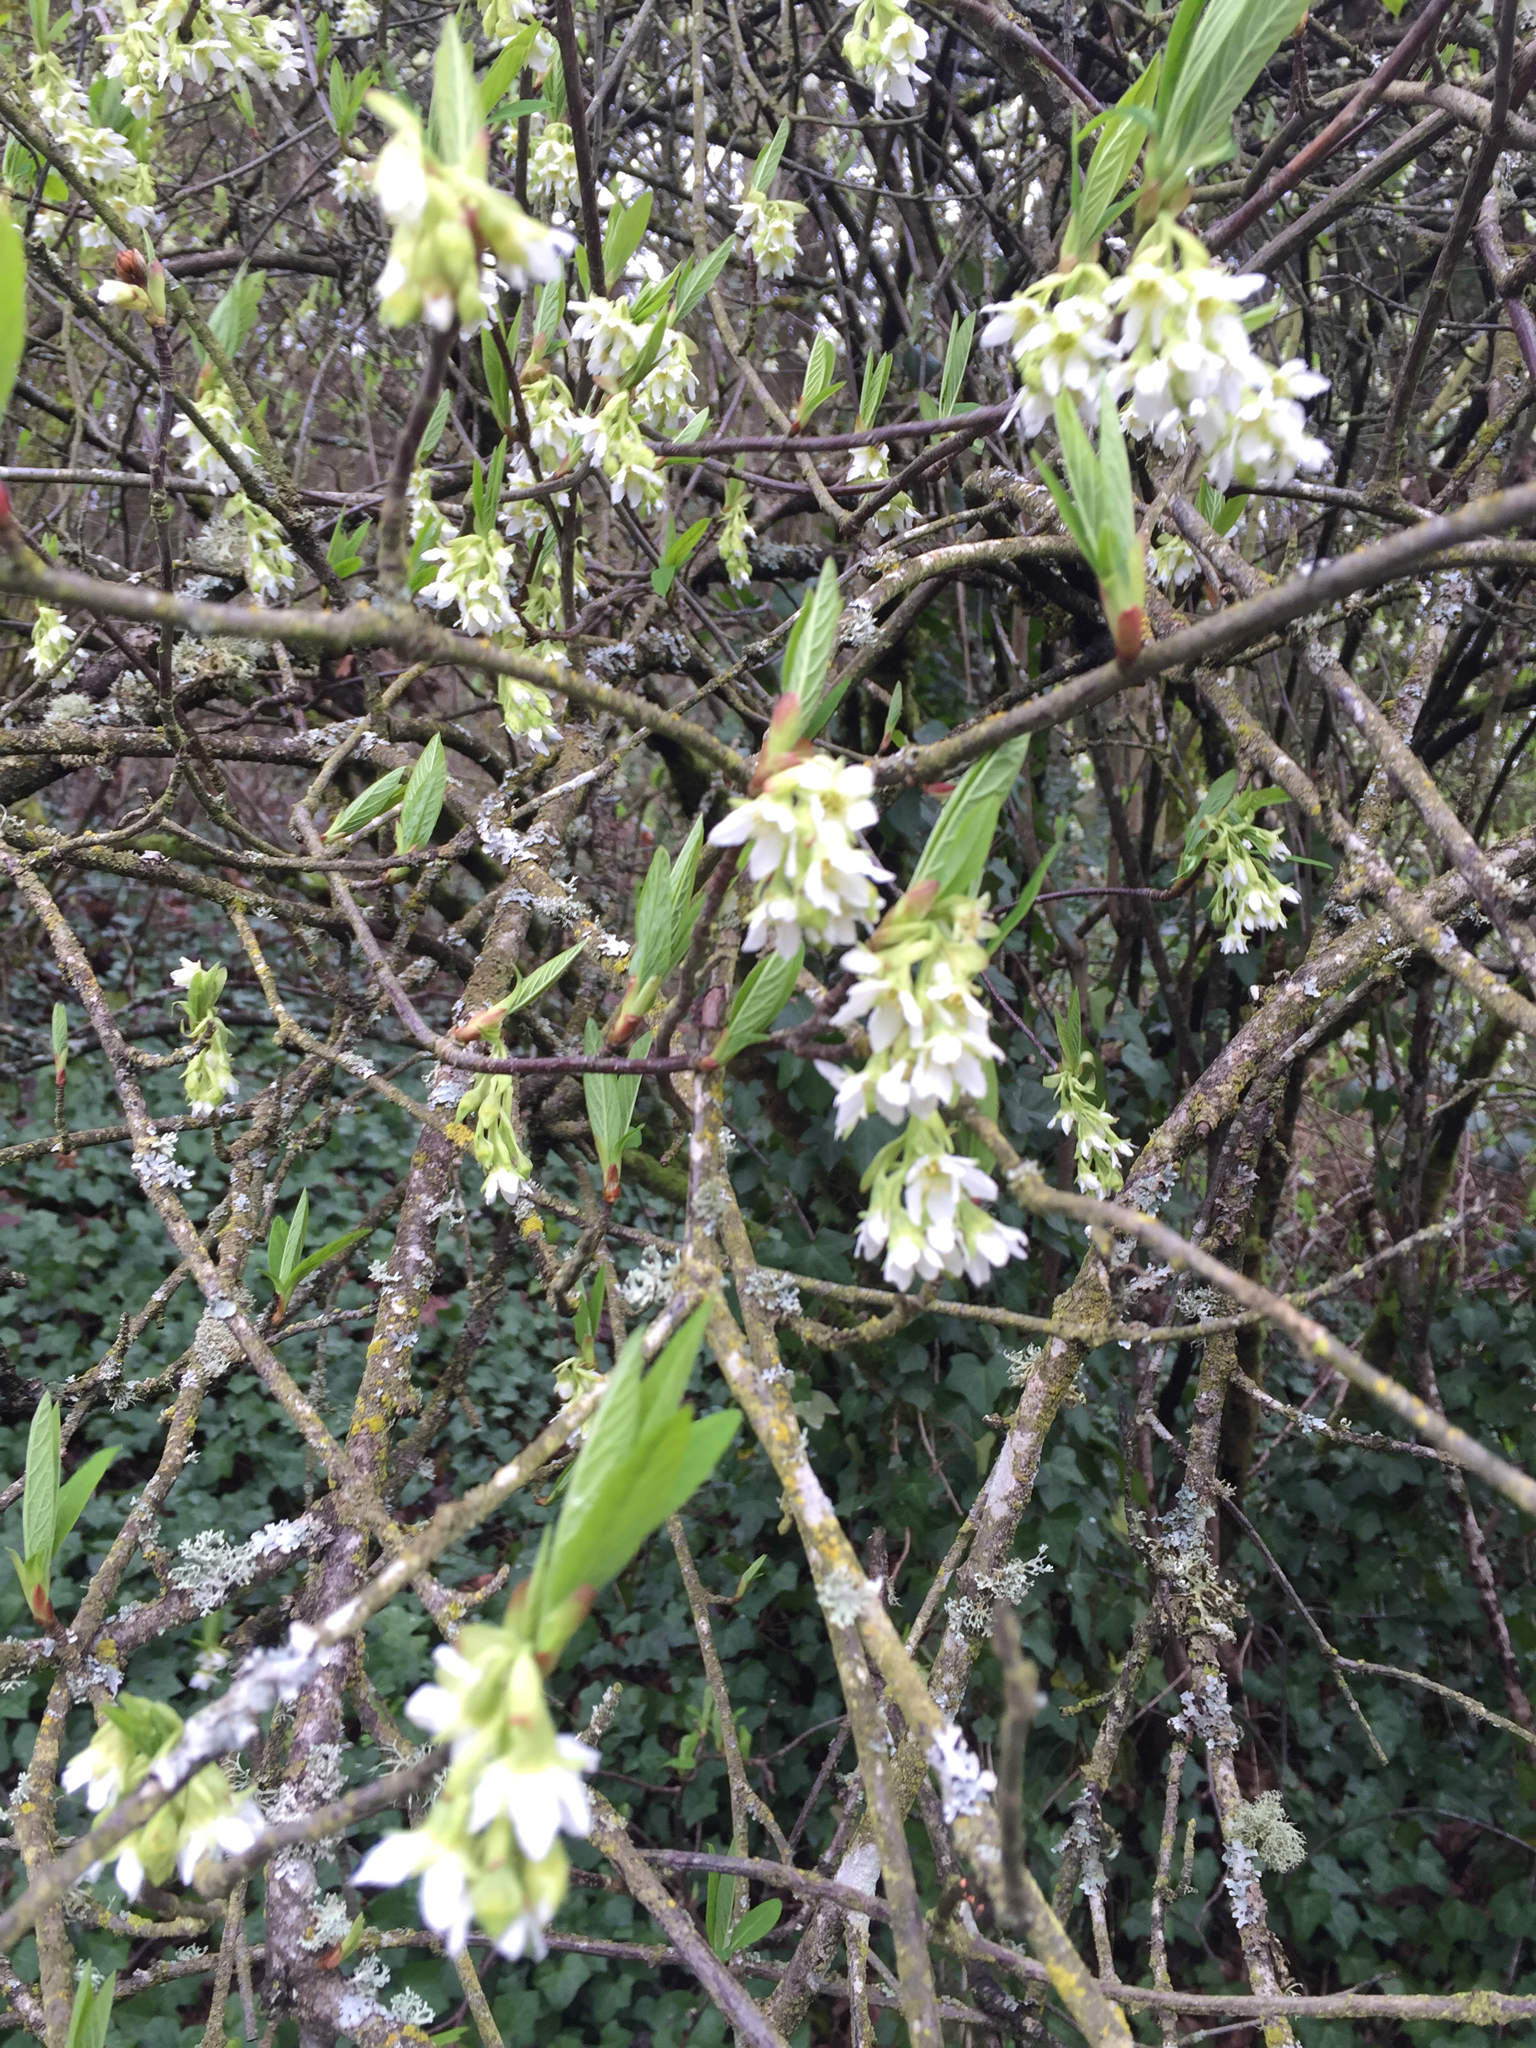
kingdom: Plantae
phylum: Tracheophyta
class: Magnoliopsida
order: Rosales
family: Rosaceae
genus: Oemleria
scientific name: Oemleria cerasiformis
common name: Osoberry
